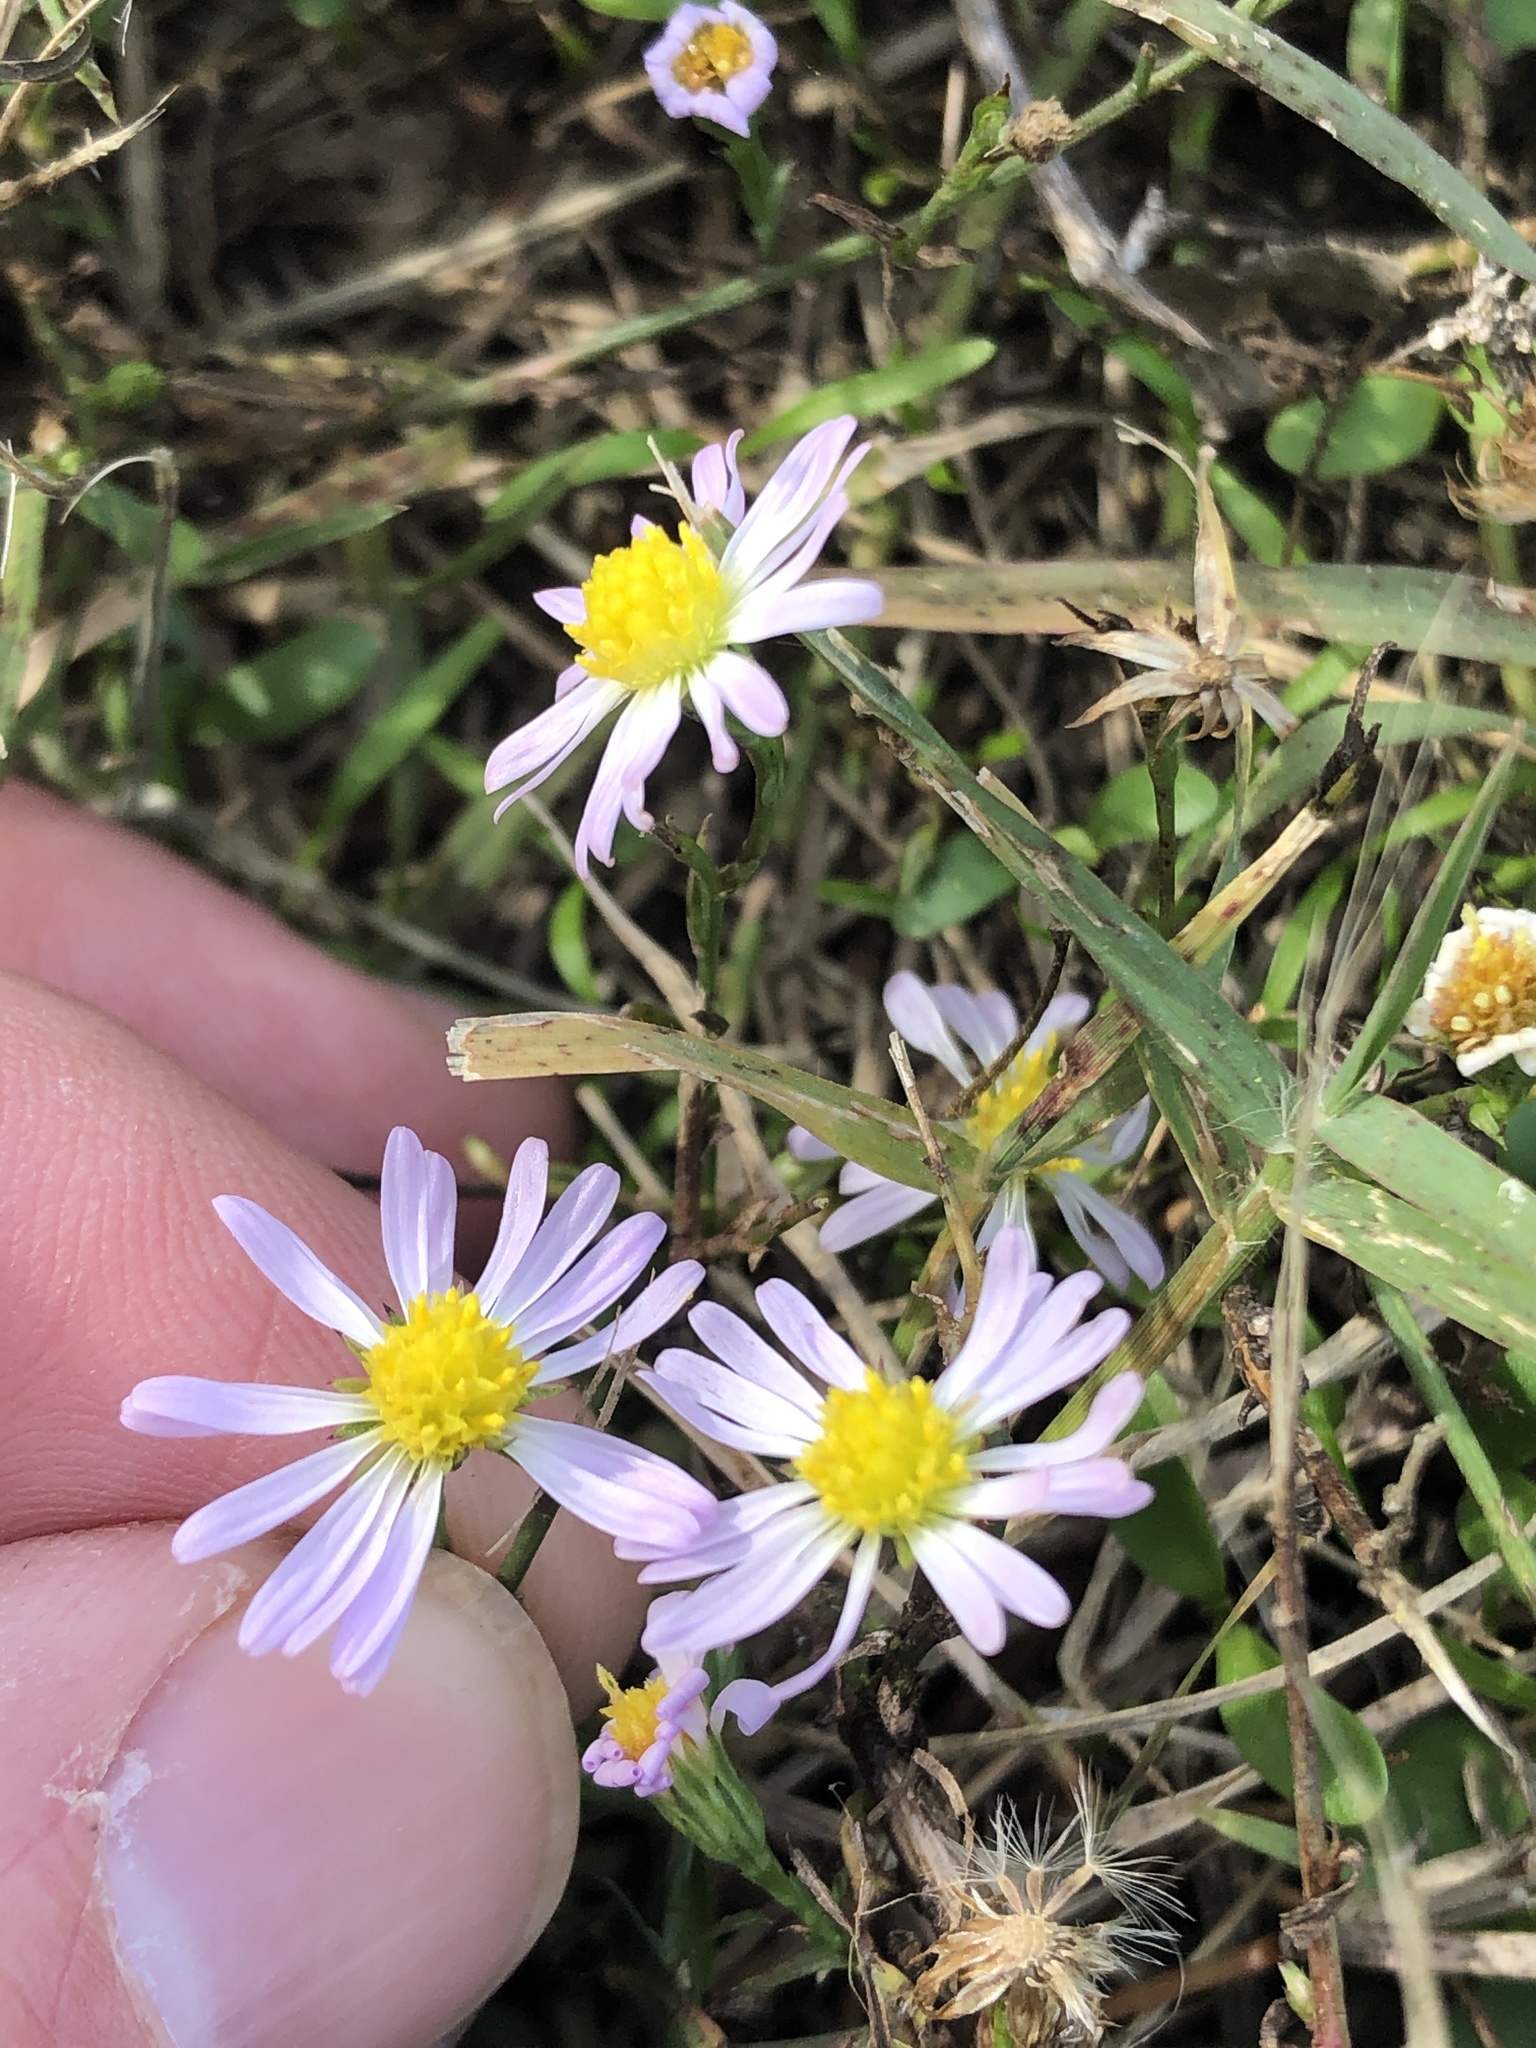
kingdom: Plantae
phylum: Tracheophyta
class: Magnoliopsida
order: Asterales
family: Asteraceae
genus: Symphyotrichum
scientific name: Symphyotrichum divaricatum
